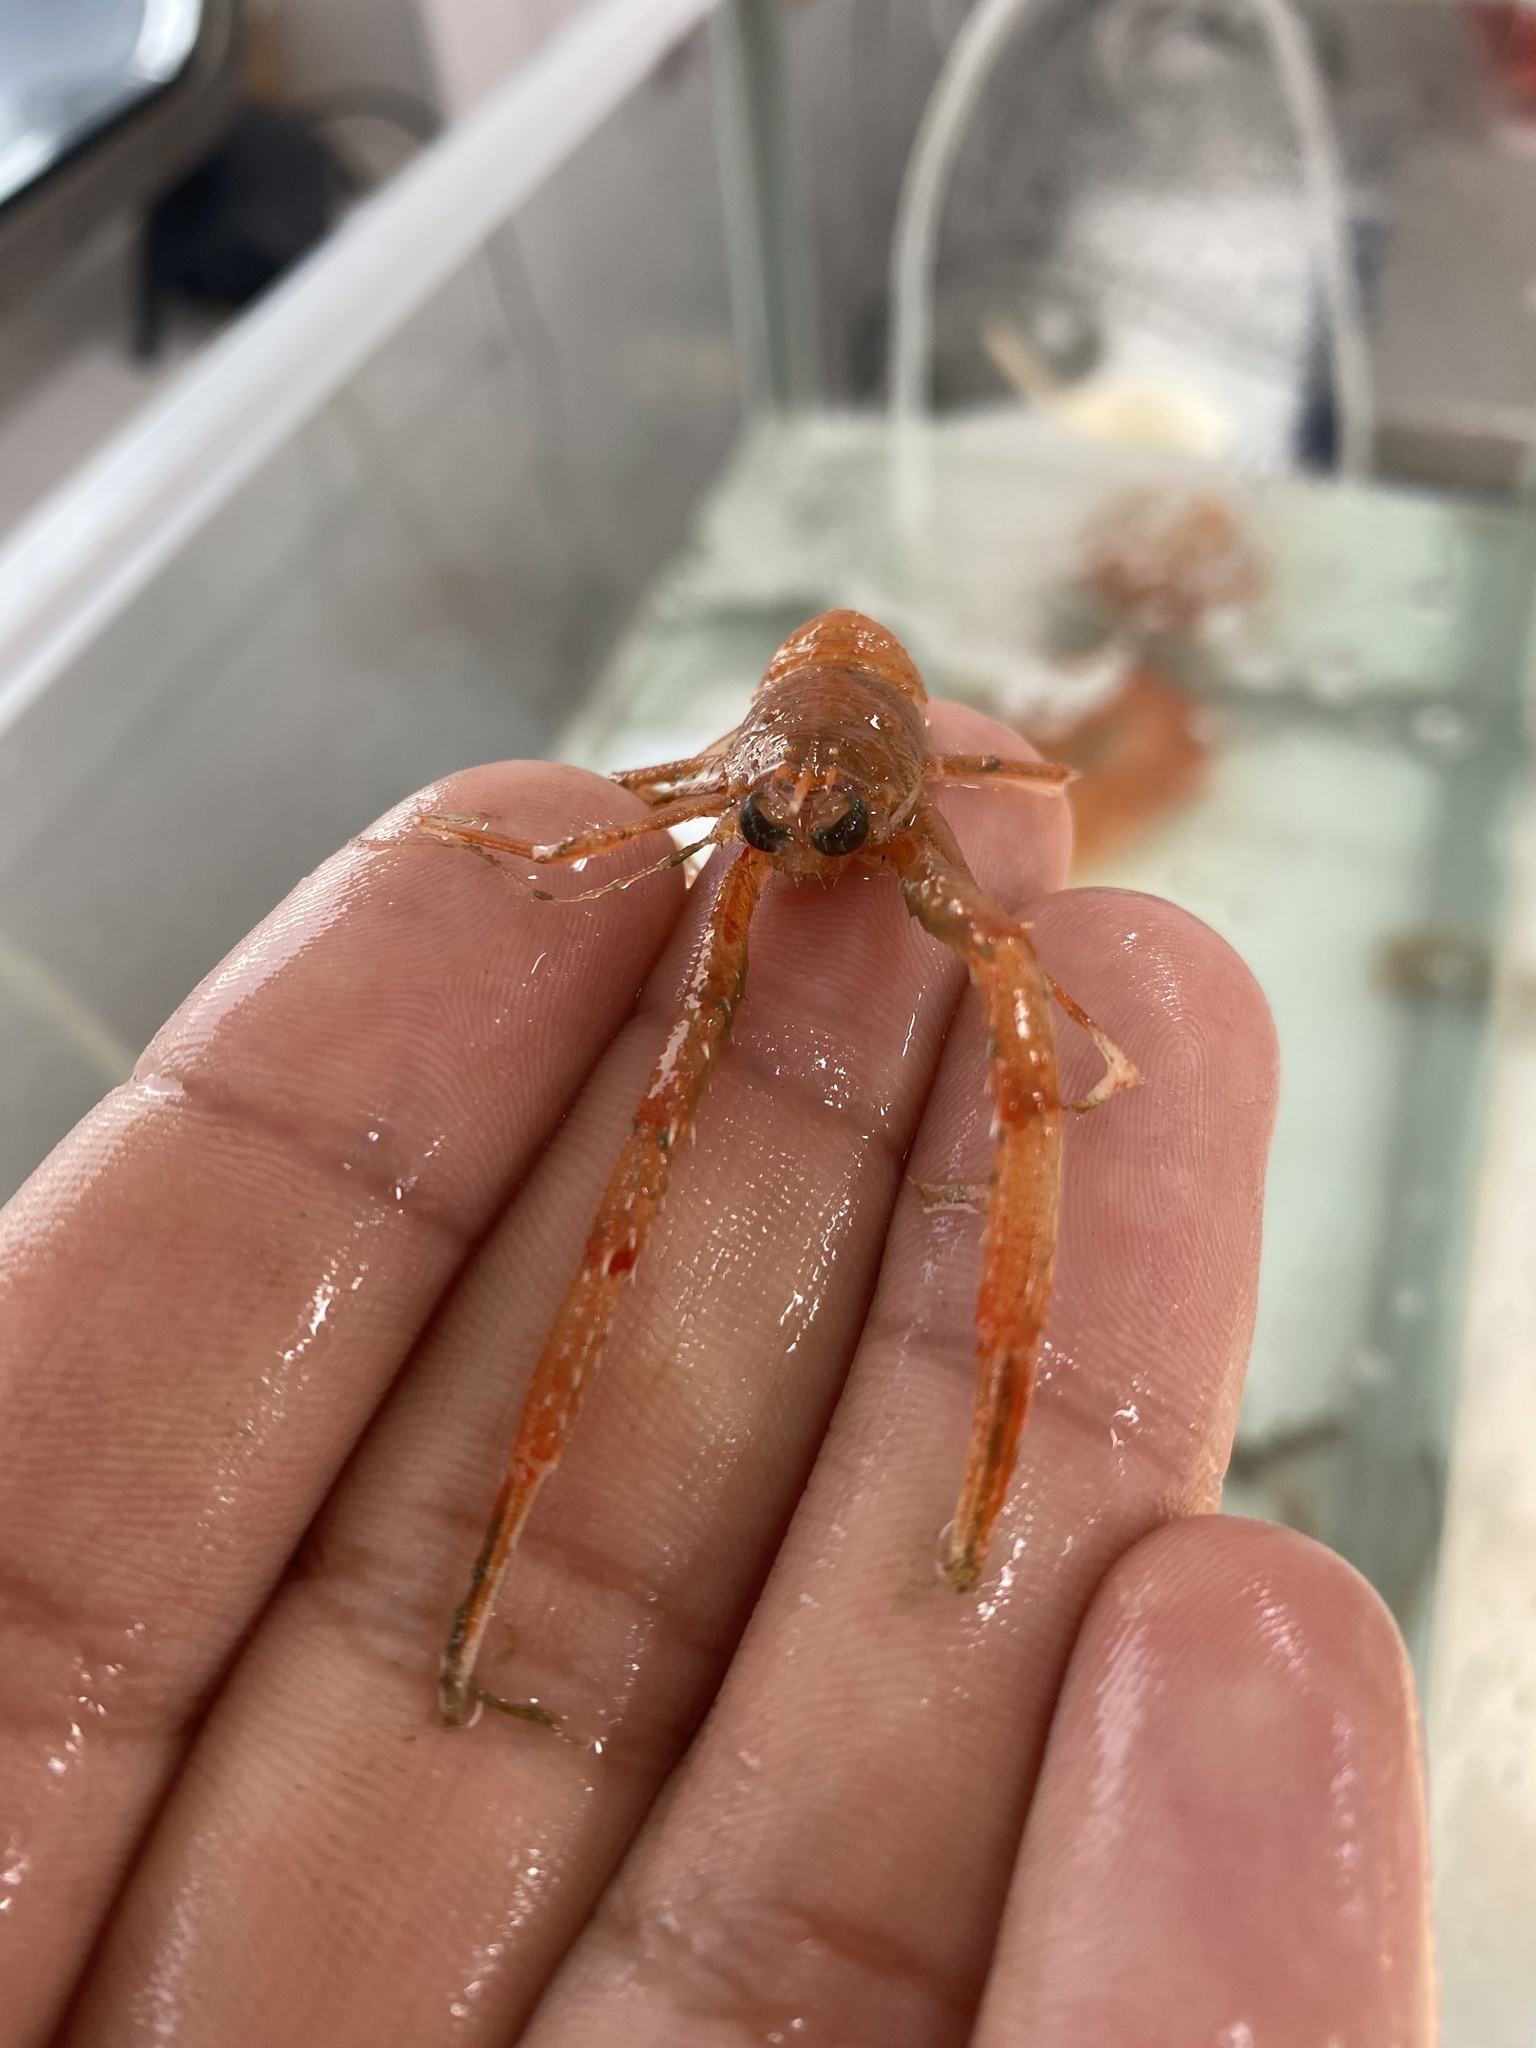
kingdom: Animalia
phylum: Arthropoda
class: Malacostraca
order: Decapoda
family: Munididae
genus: Munida
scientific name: Munida sarsi
